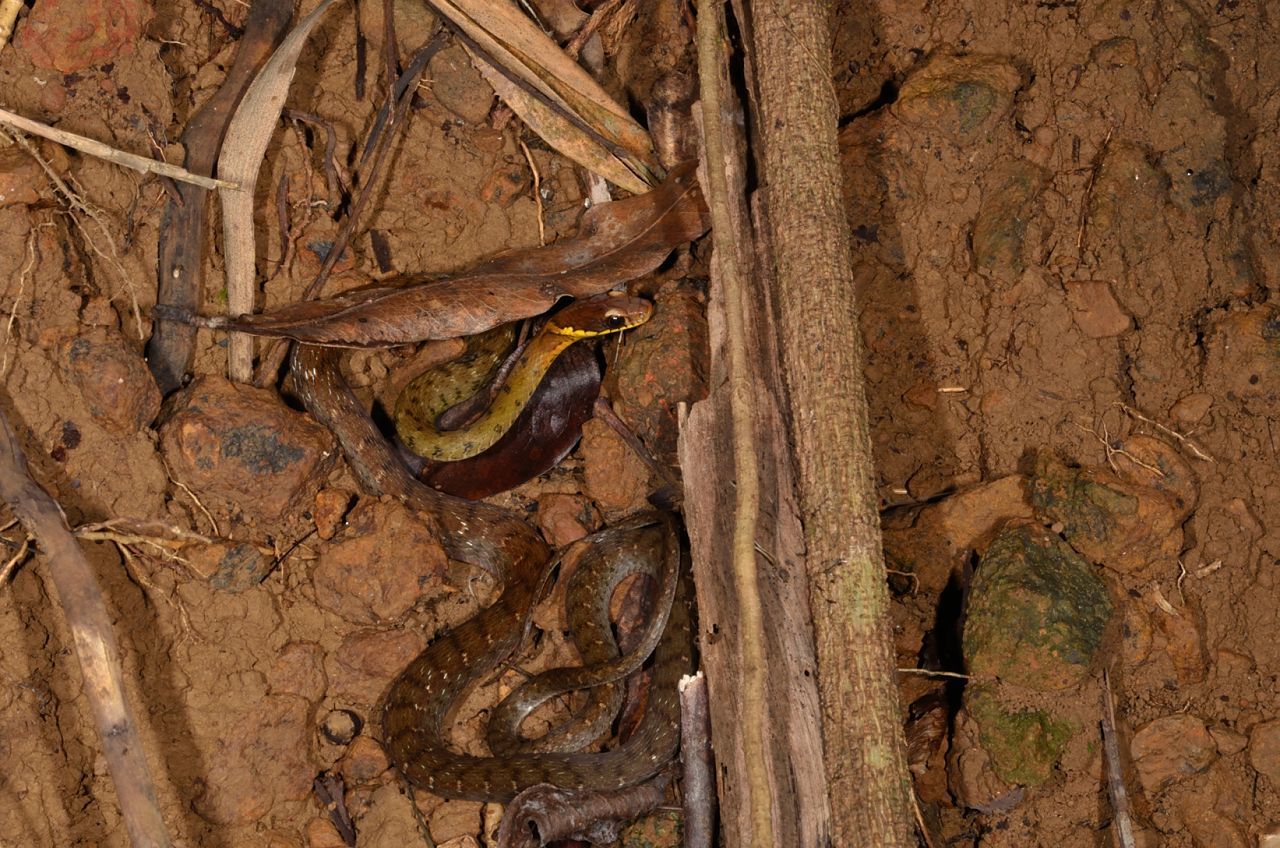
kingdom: Animalia
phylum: Chordata
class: Squamata
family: Colubridae
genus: Rhabdophis
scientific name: Rhabdophis chrysargos
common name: Specklebelly keelback
